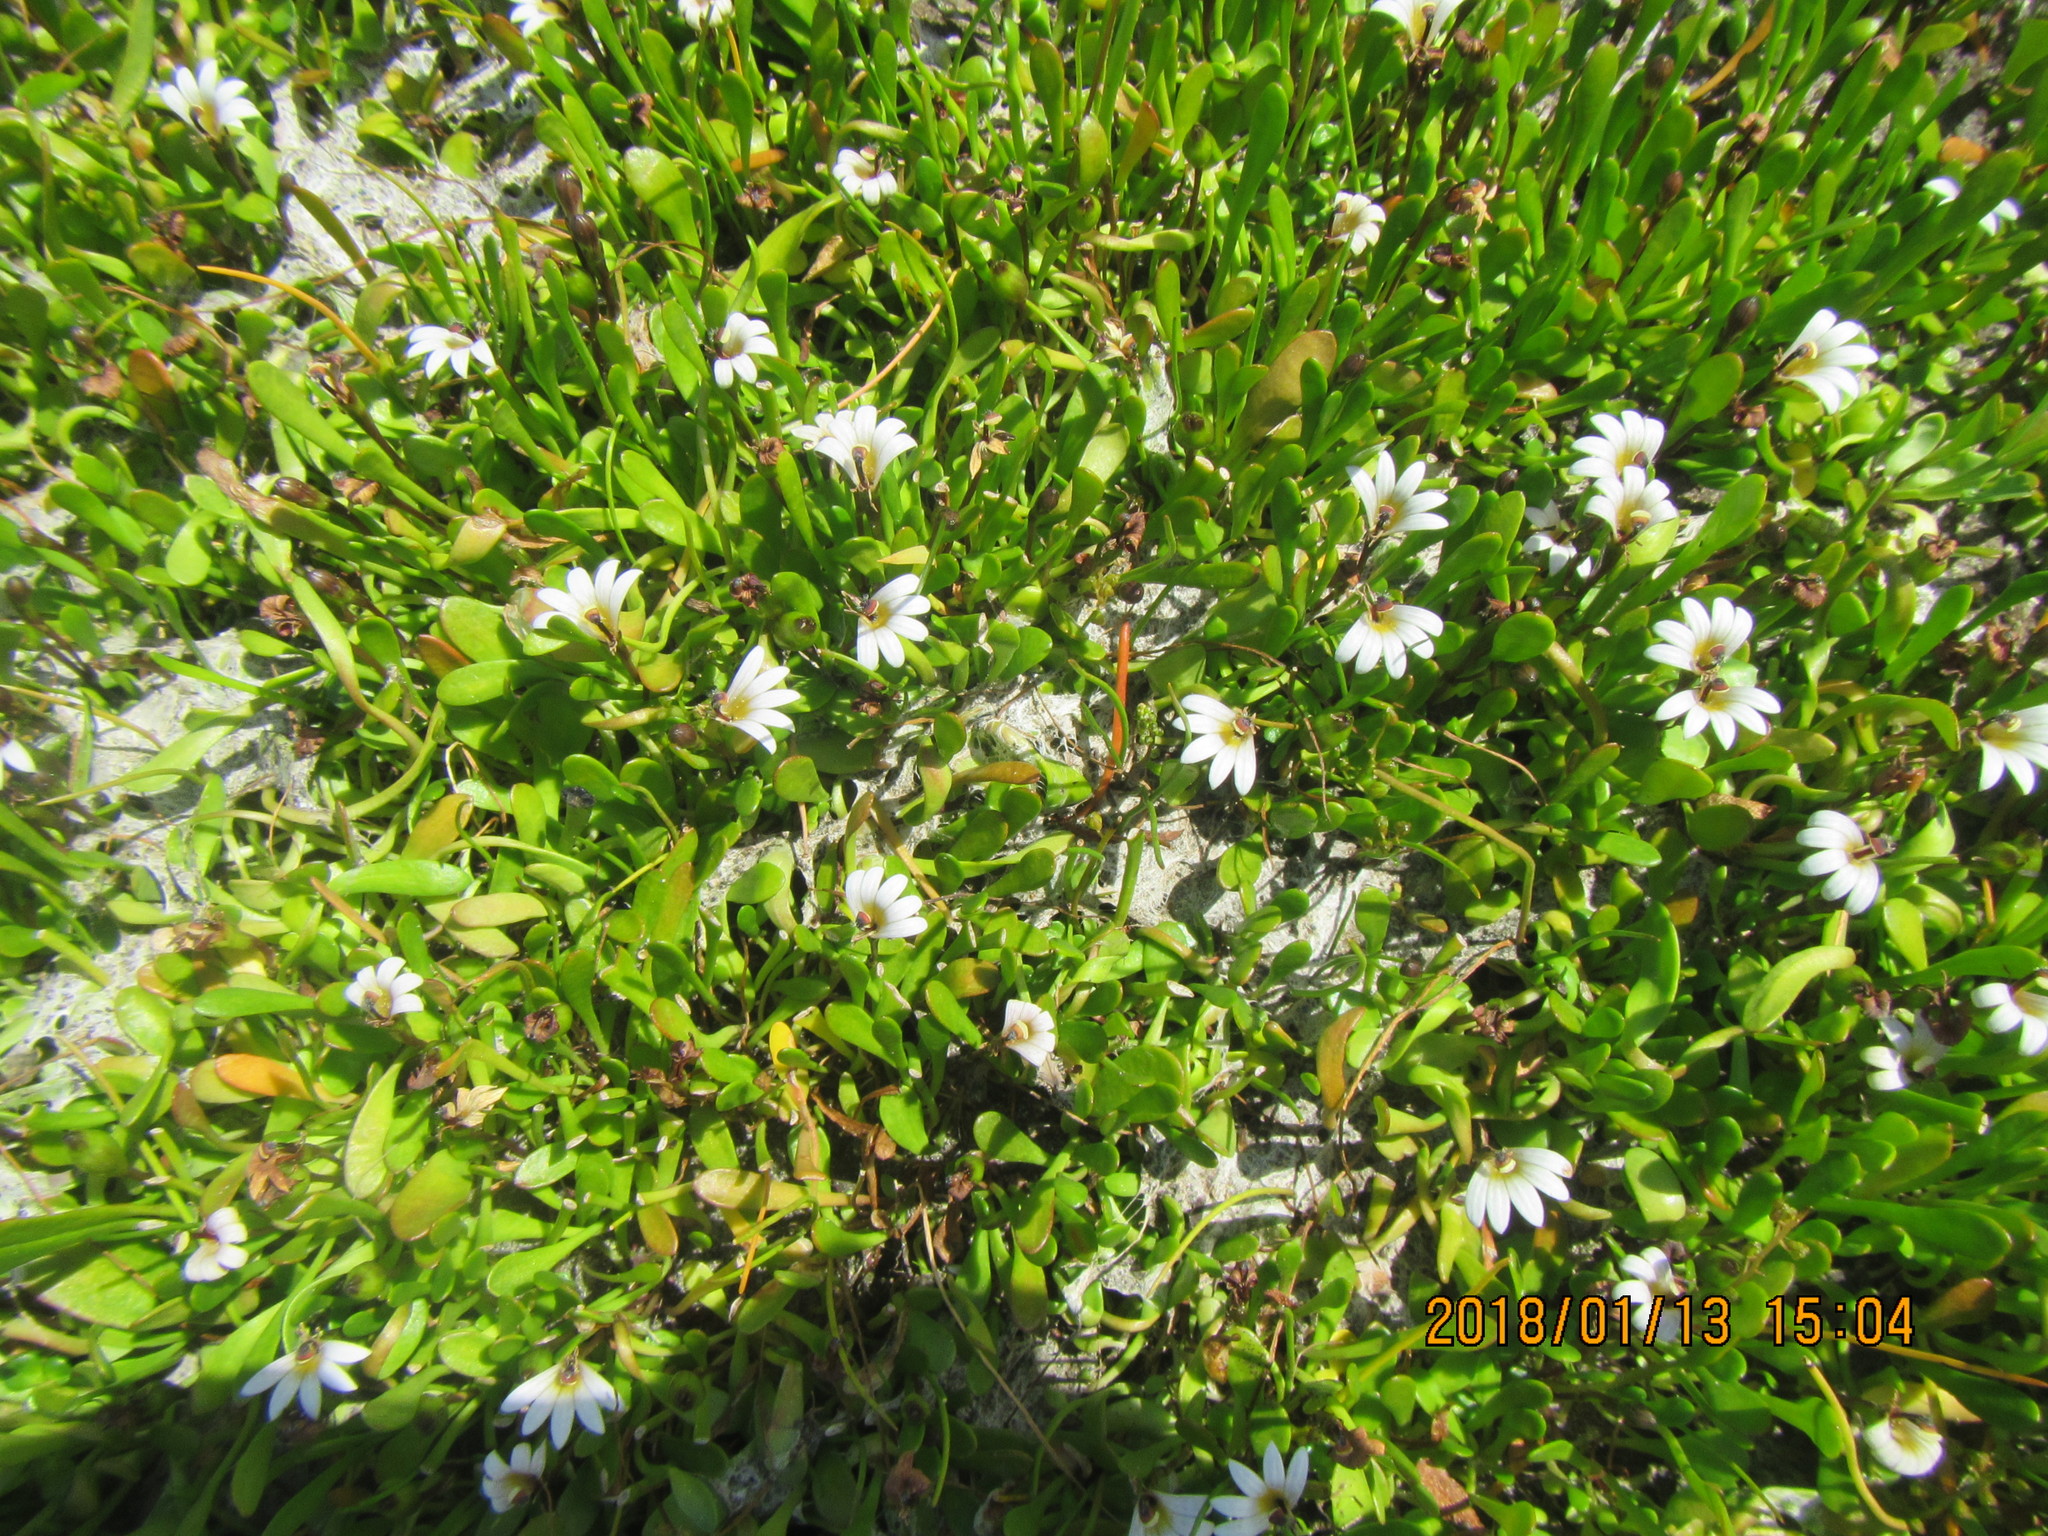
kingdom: Plantae
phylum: Tracheophyta
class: Magnoliopsida
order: Asterales
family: Goodeniaceae
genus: Goodenia
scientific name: Goodenia radicans
